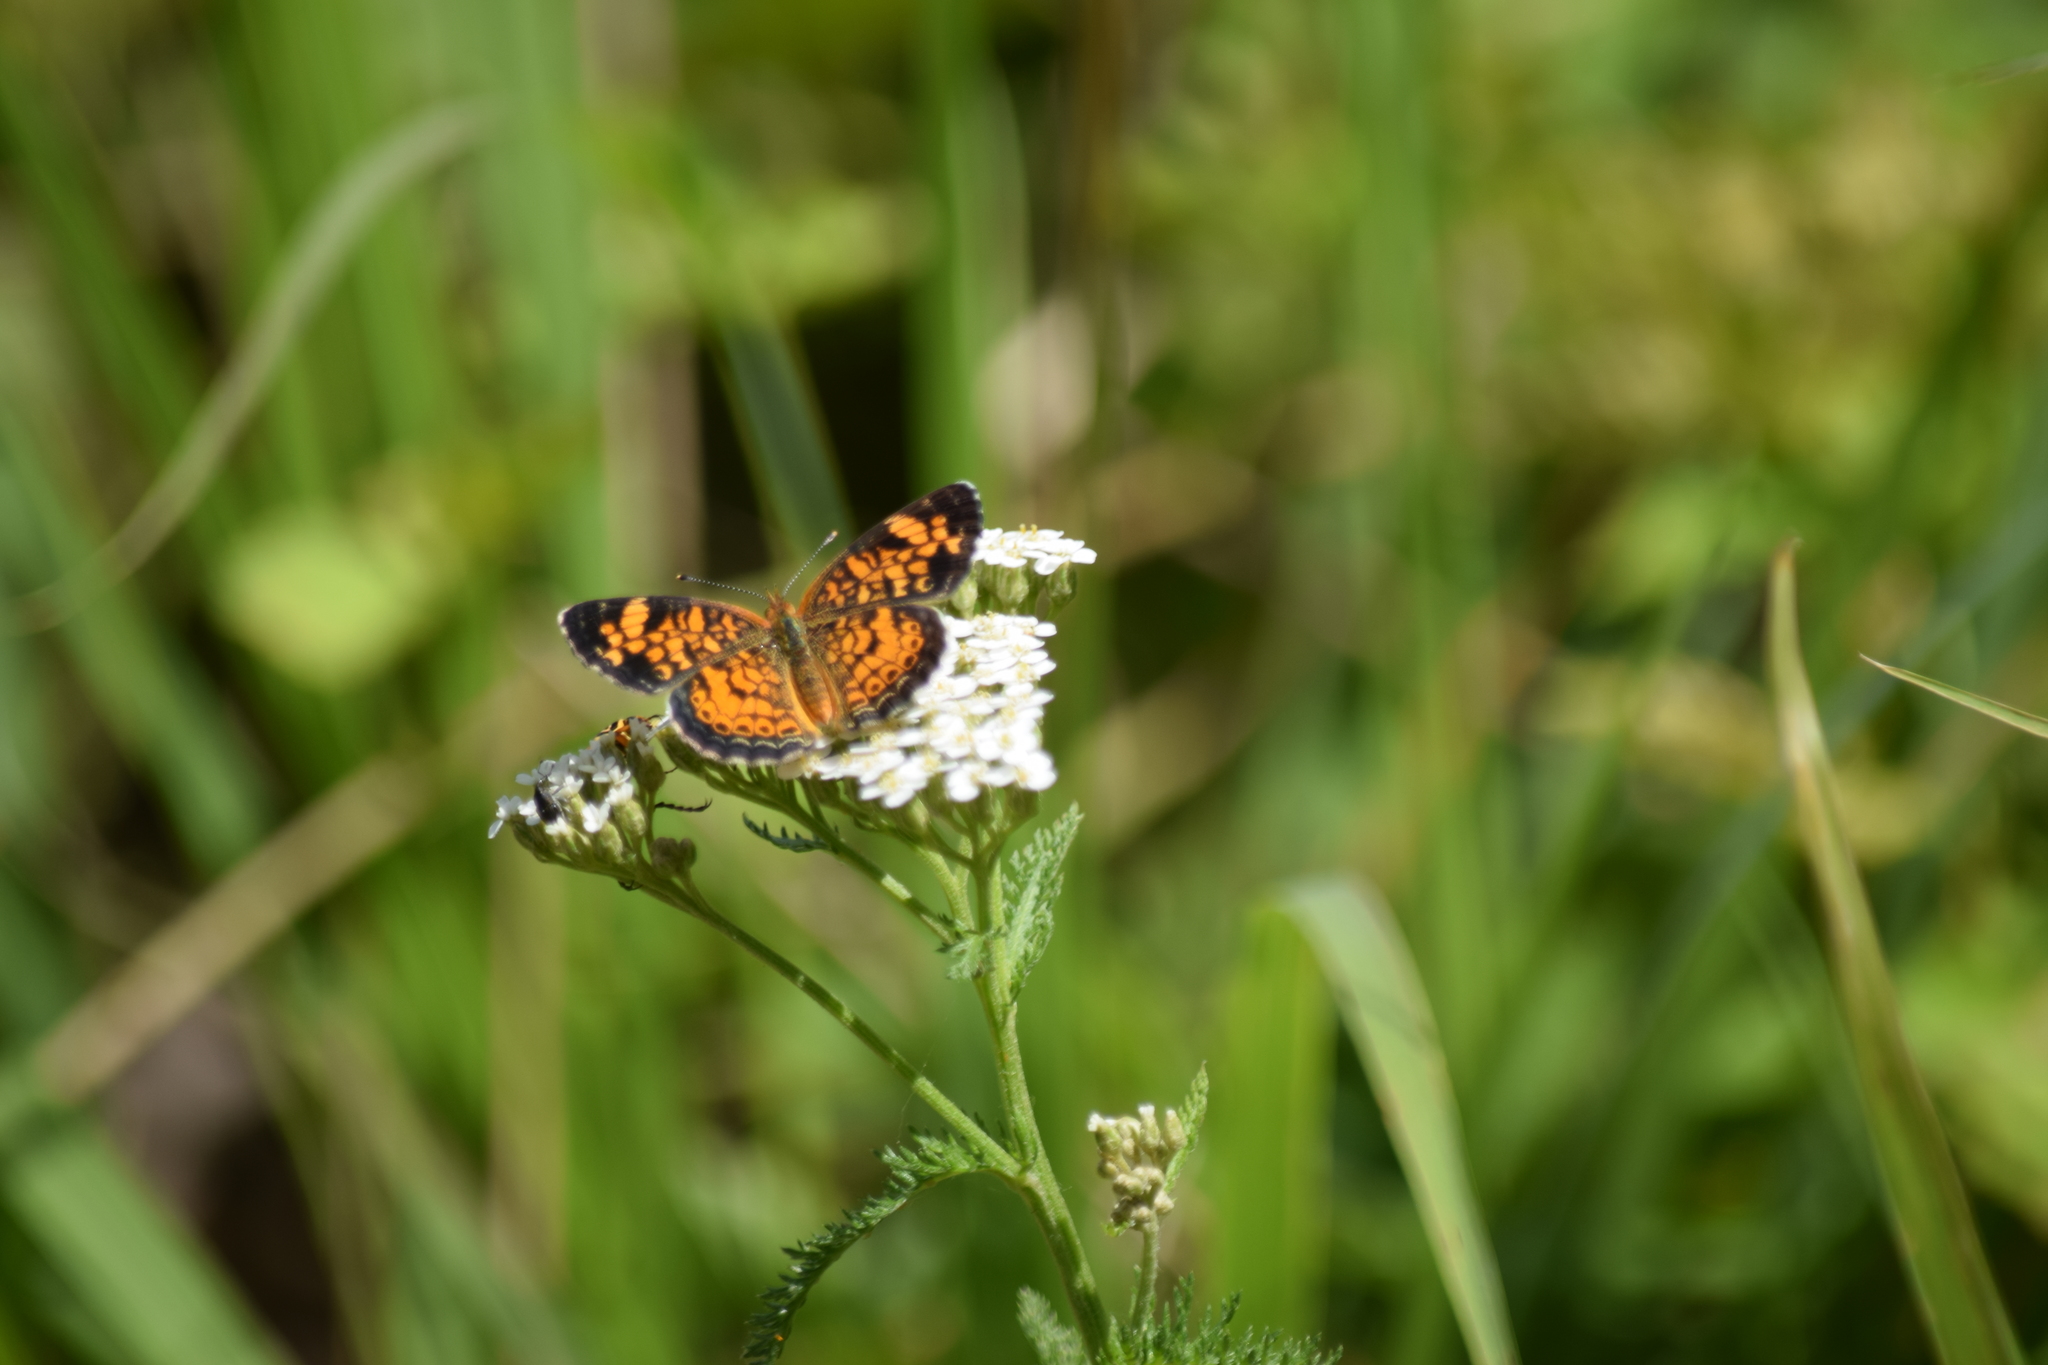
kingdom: Animalia
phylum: Arthropoda
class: Insecta
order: Lepidoptera
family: Nymphalidae
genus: Phyciodes
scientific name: Phyciodes tharos
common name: Pearl crescent
